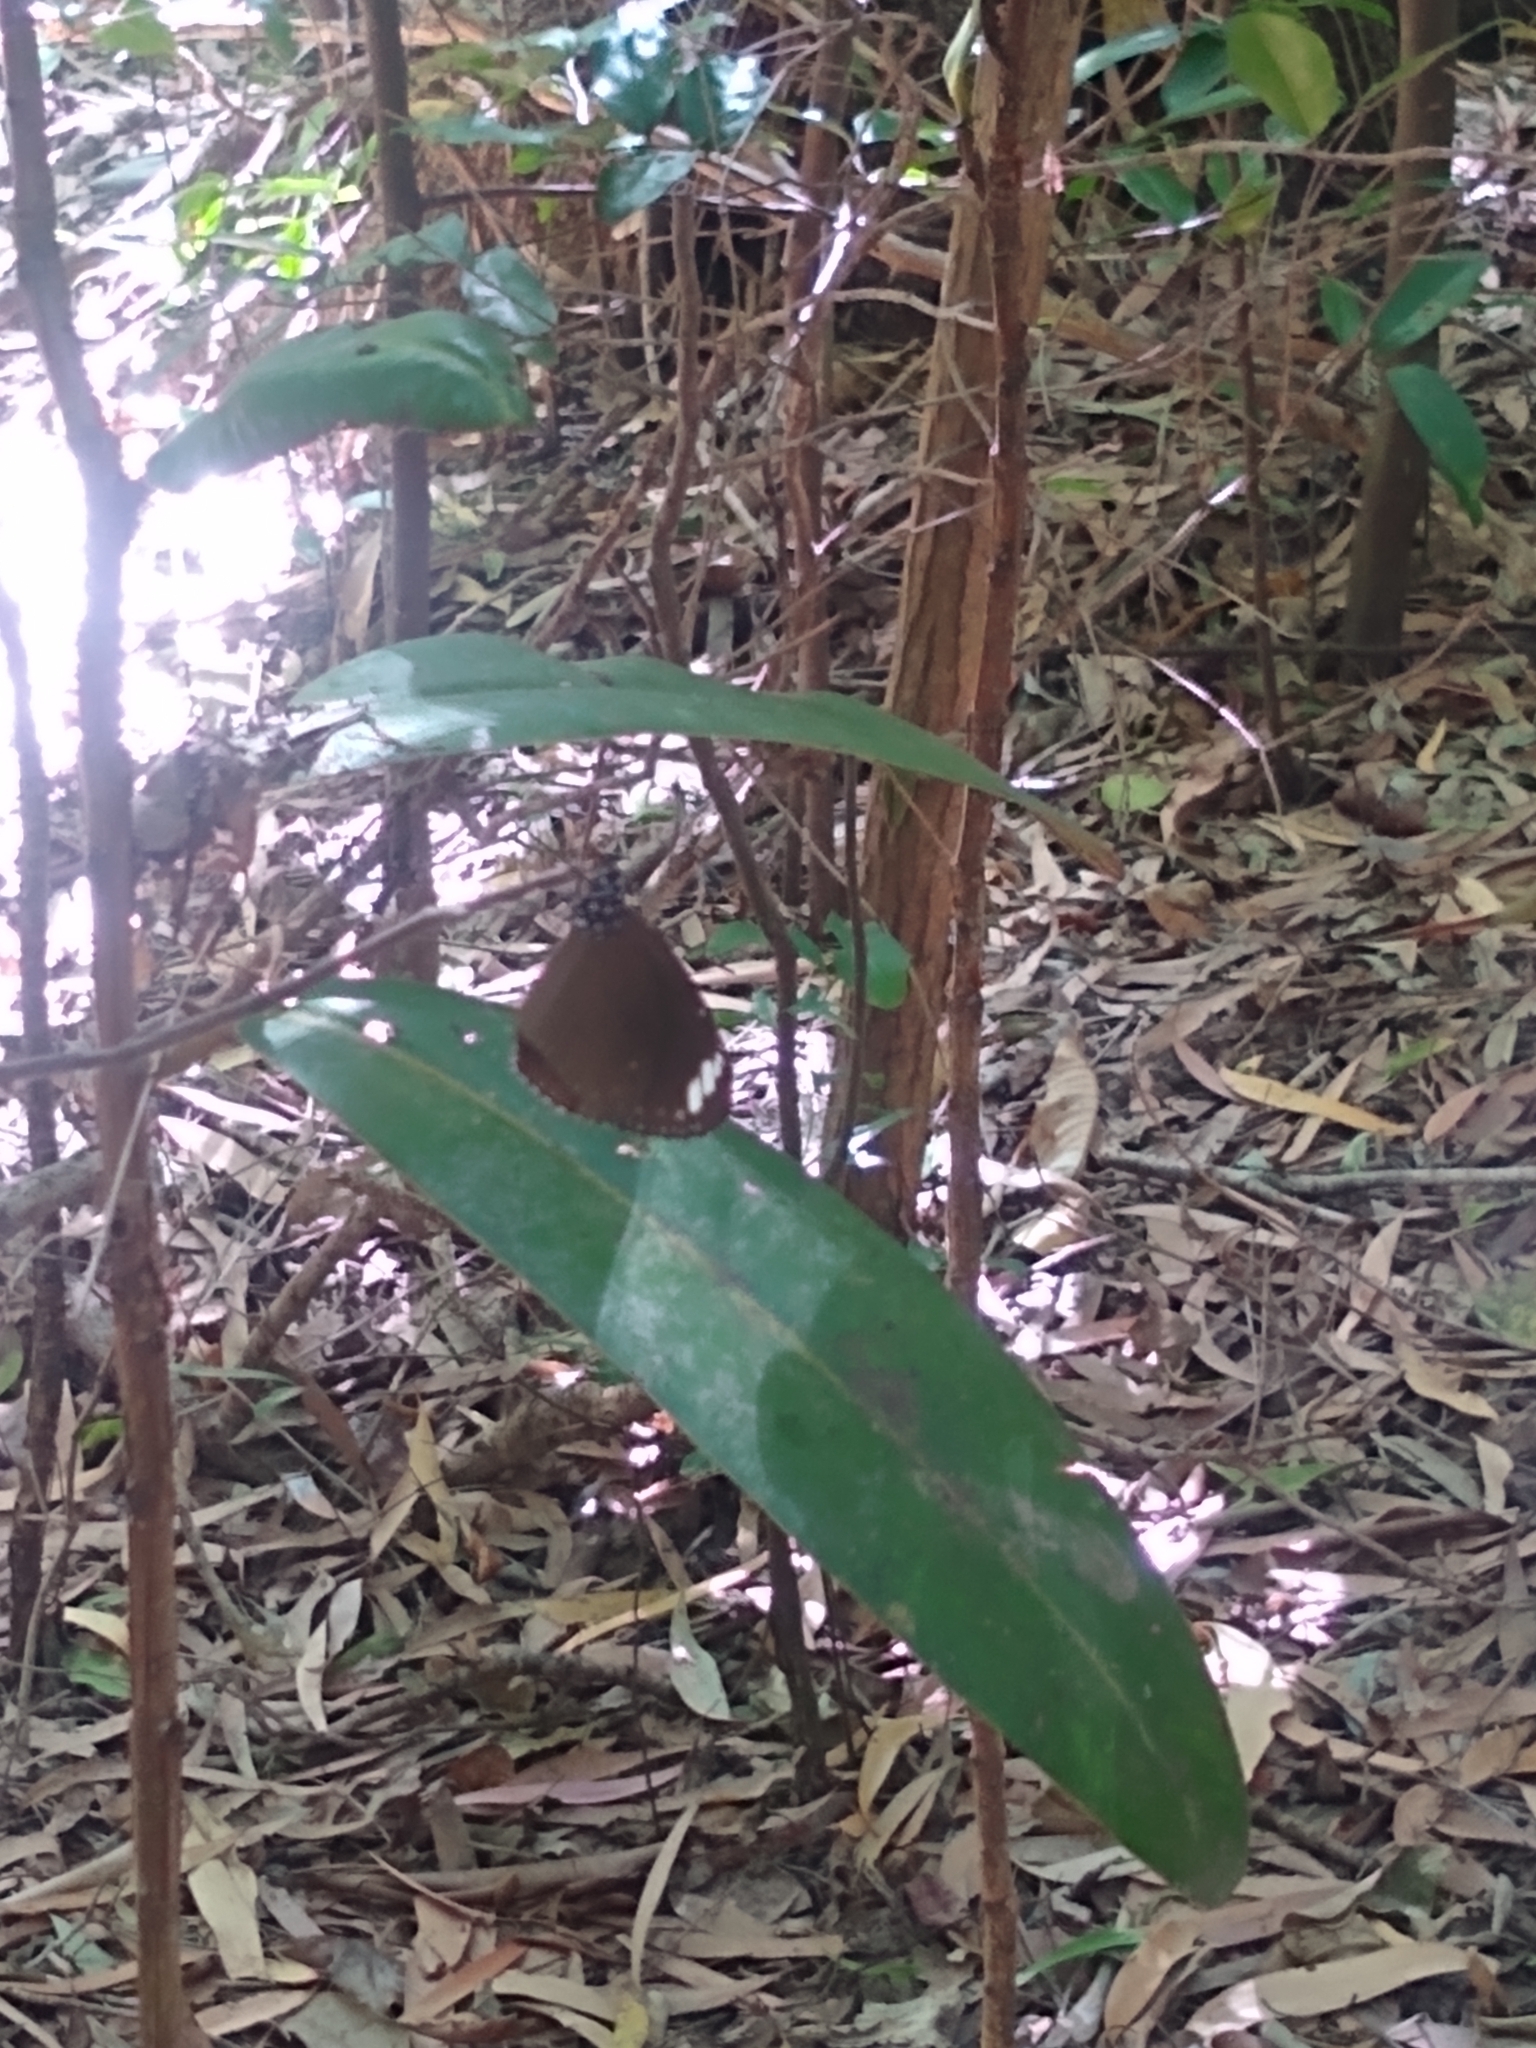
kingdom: Animalia
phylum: Arthropoda
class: Insecta
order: Lepidoptera
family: Nymphalidae
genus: Euploea
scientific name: Euploea tulliolus
